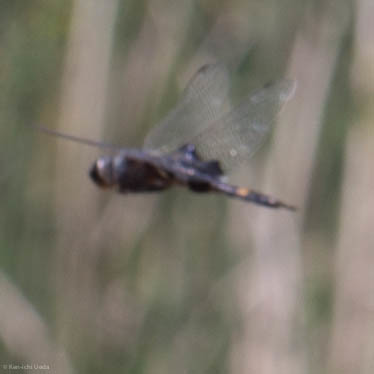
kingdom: Animalia
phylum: Arthropoda
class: Insecta
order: Odonata
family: Libellulidae
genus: Tramea
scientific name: Tramea lacerata
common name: Black saddlebags
